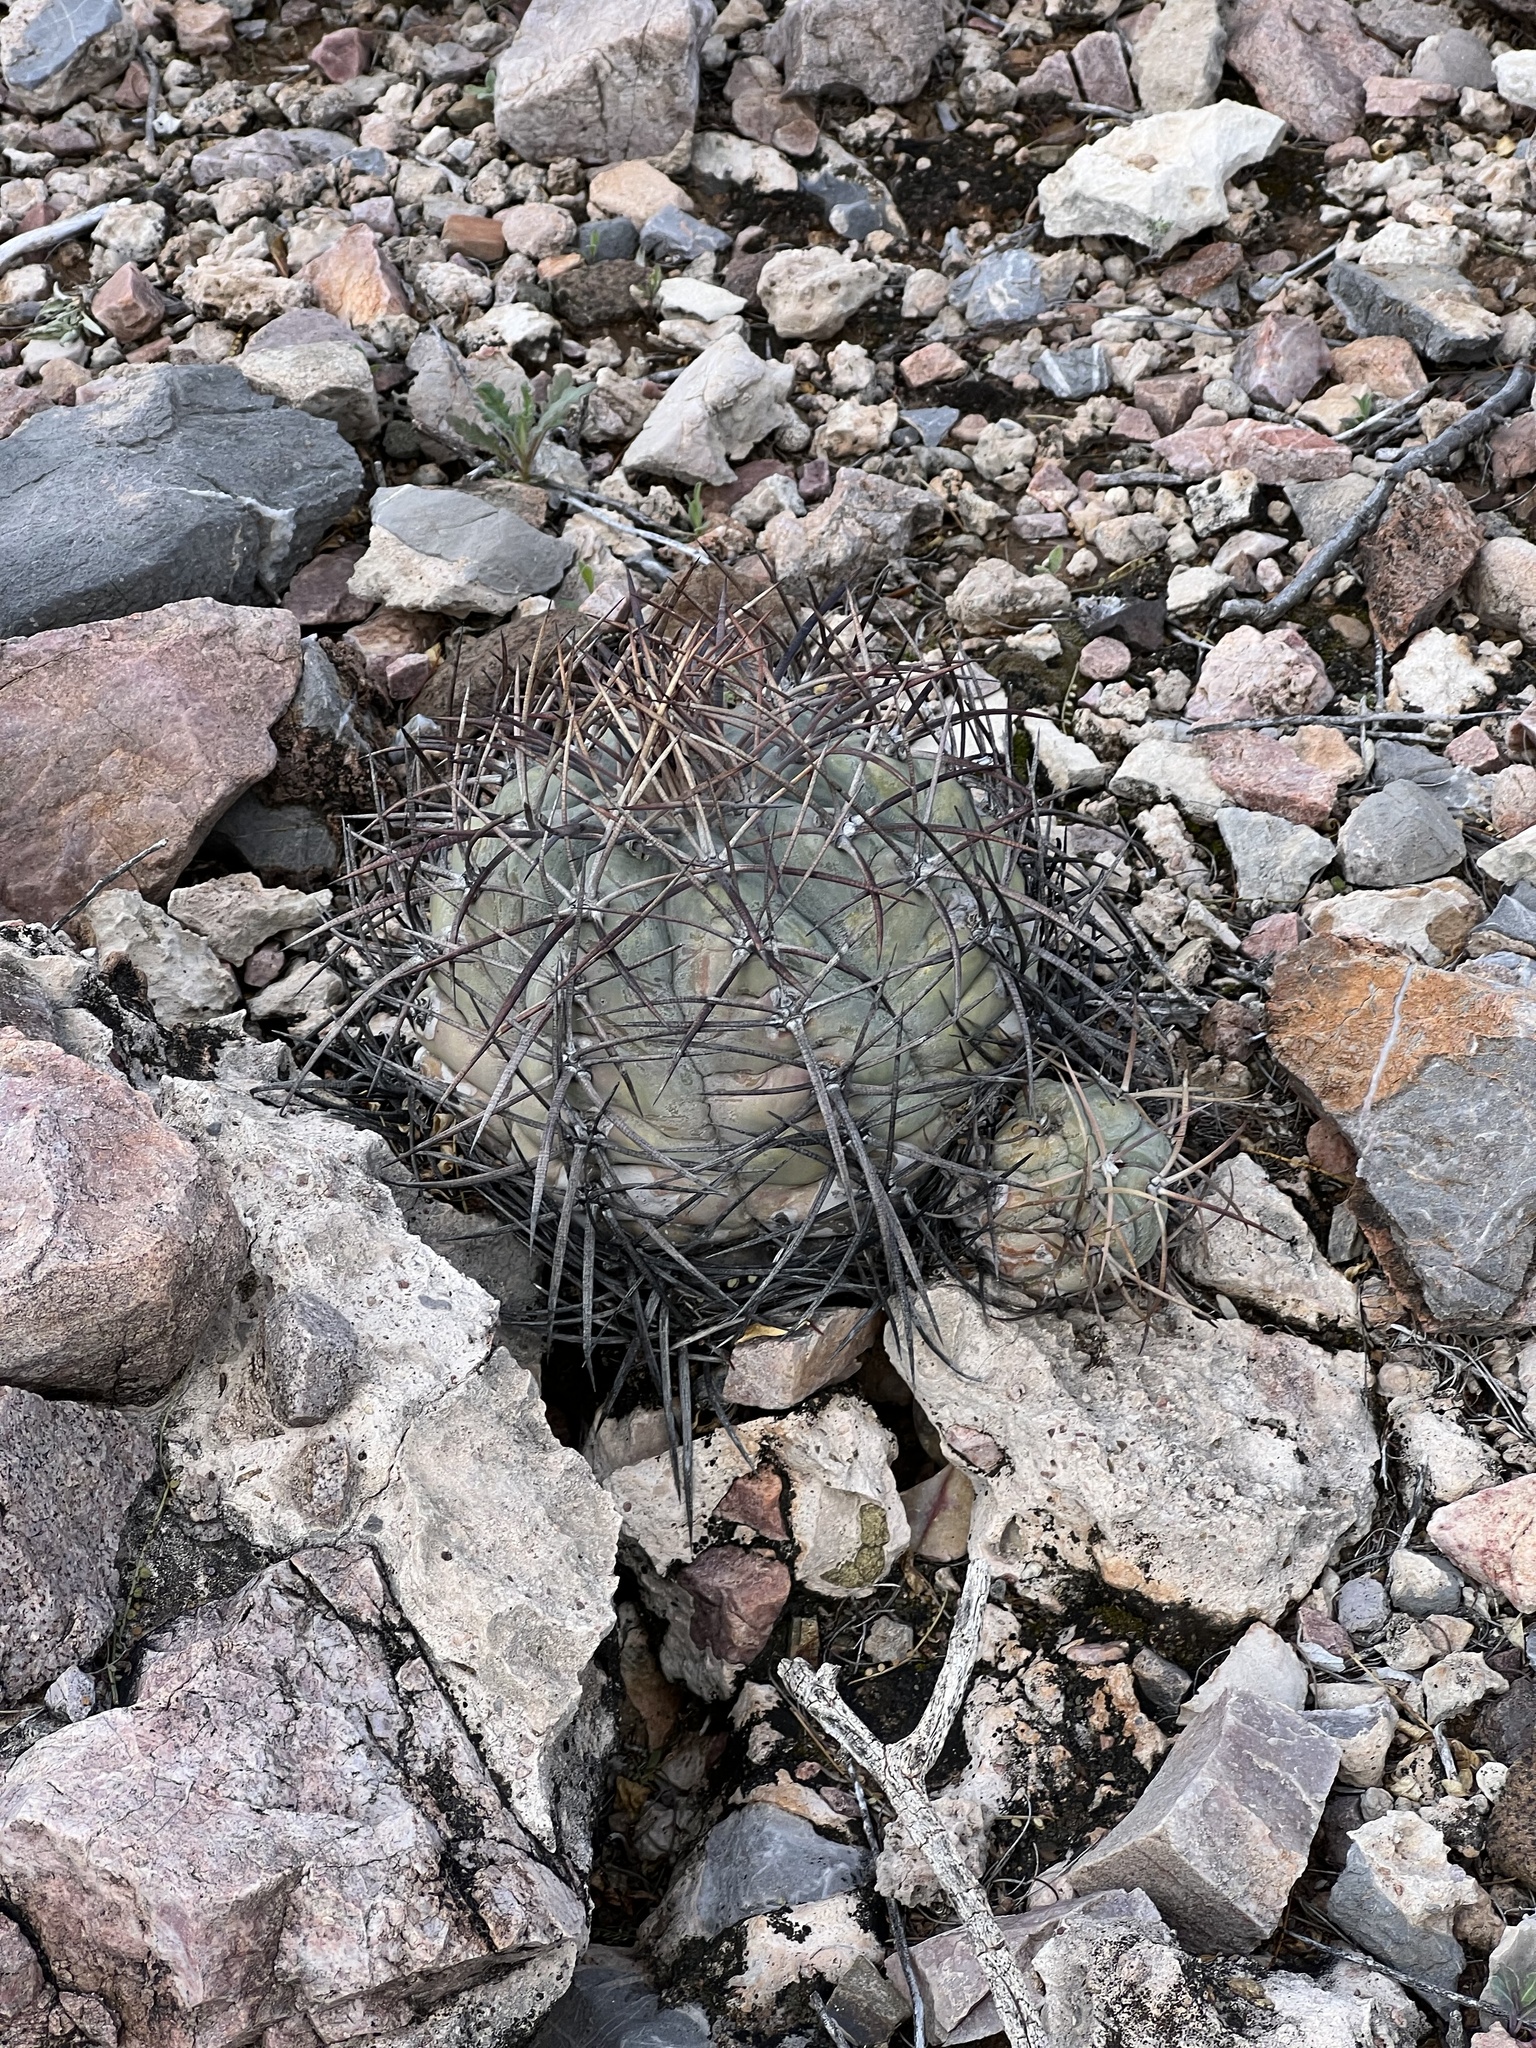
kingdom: Plantae
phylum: Tracheophyta
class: Magnoliopsida
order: Caryophyllales
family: Cactaceae
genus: Echinocactus
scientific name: Echinocactus horizonthalonius
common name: Devilshead
